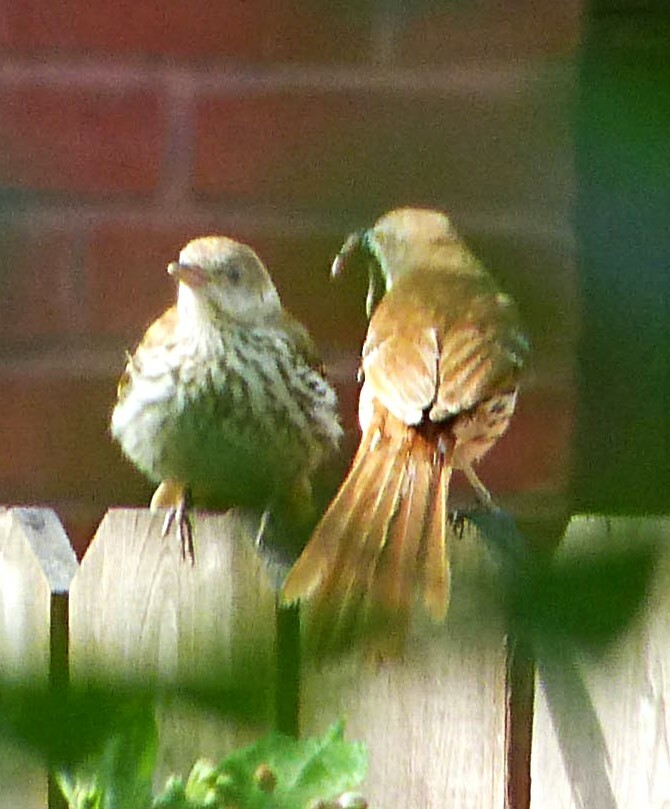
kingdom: Animalia
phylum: Chordata
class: Aves
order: Passeriformes
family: Mimidae
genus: Toxostoma
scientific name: Toxostoma rufum
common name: Brown thrasher
